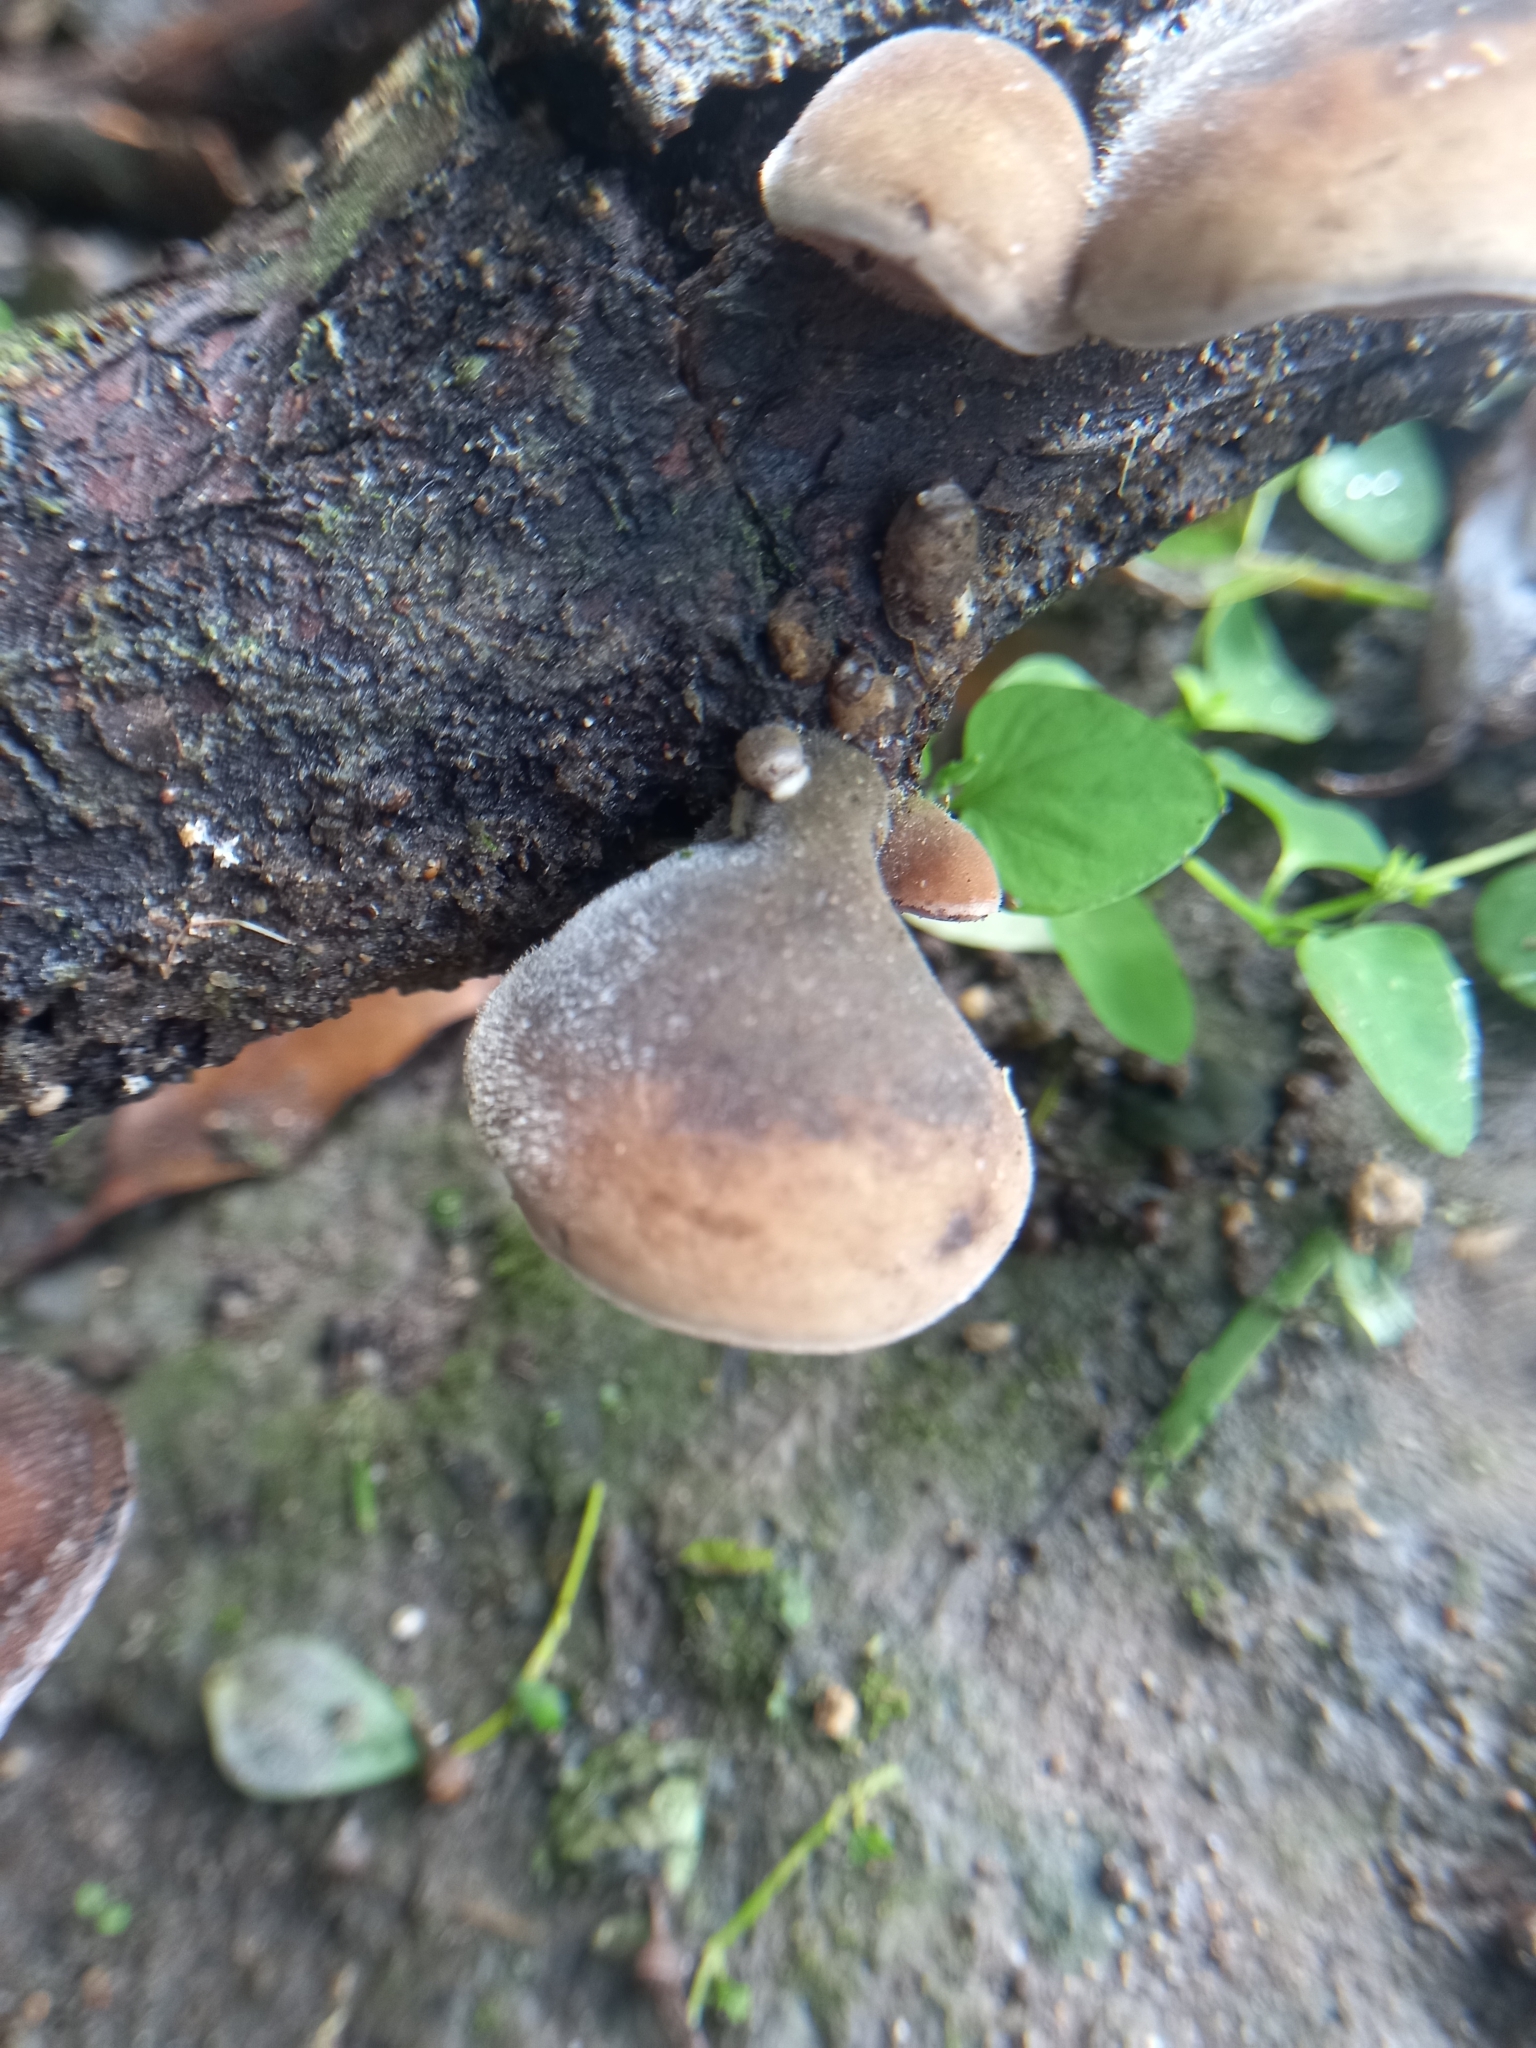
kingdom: Fungi
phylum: Basidiomycota
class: Agaricomycetes
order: Auriculariales
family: Auriculariaceae
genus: Auricularia
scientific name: Auricularia nigricans
